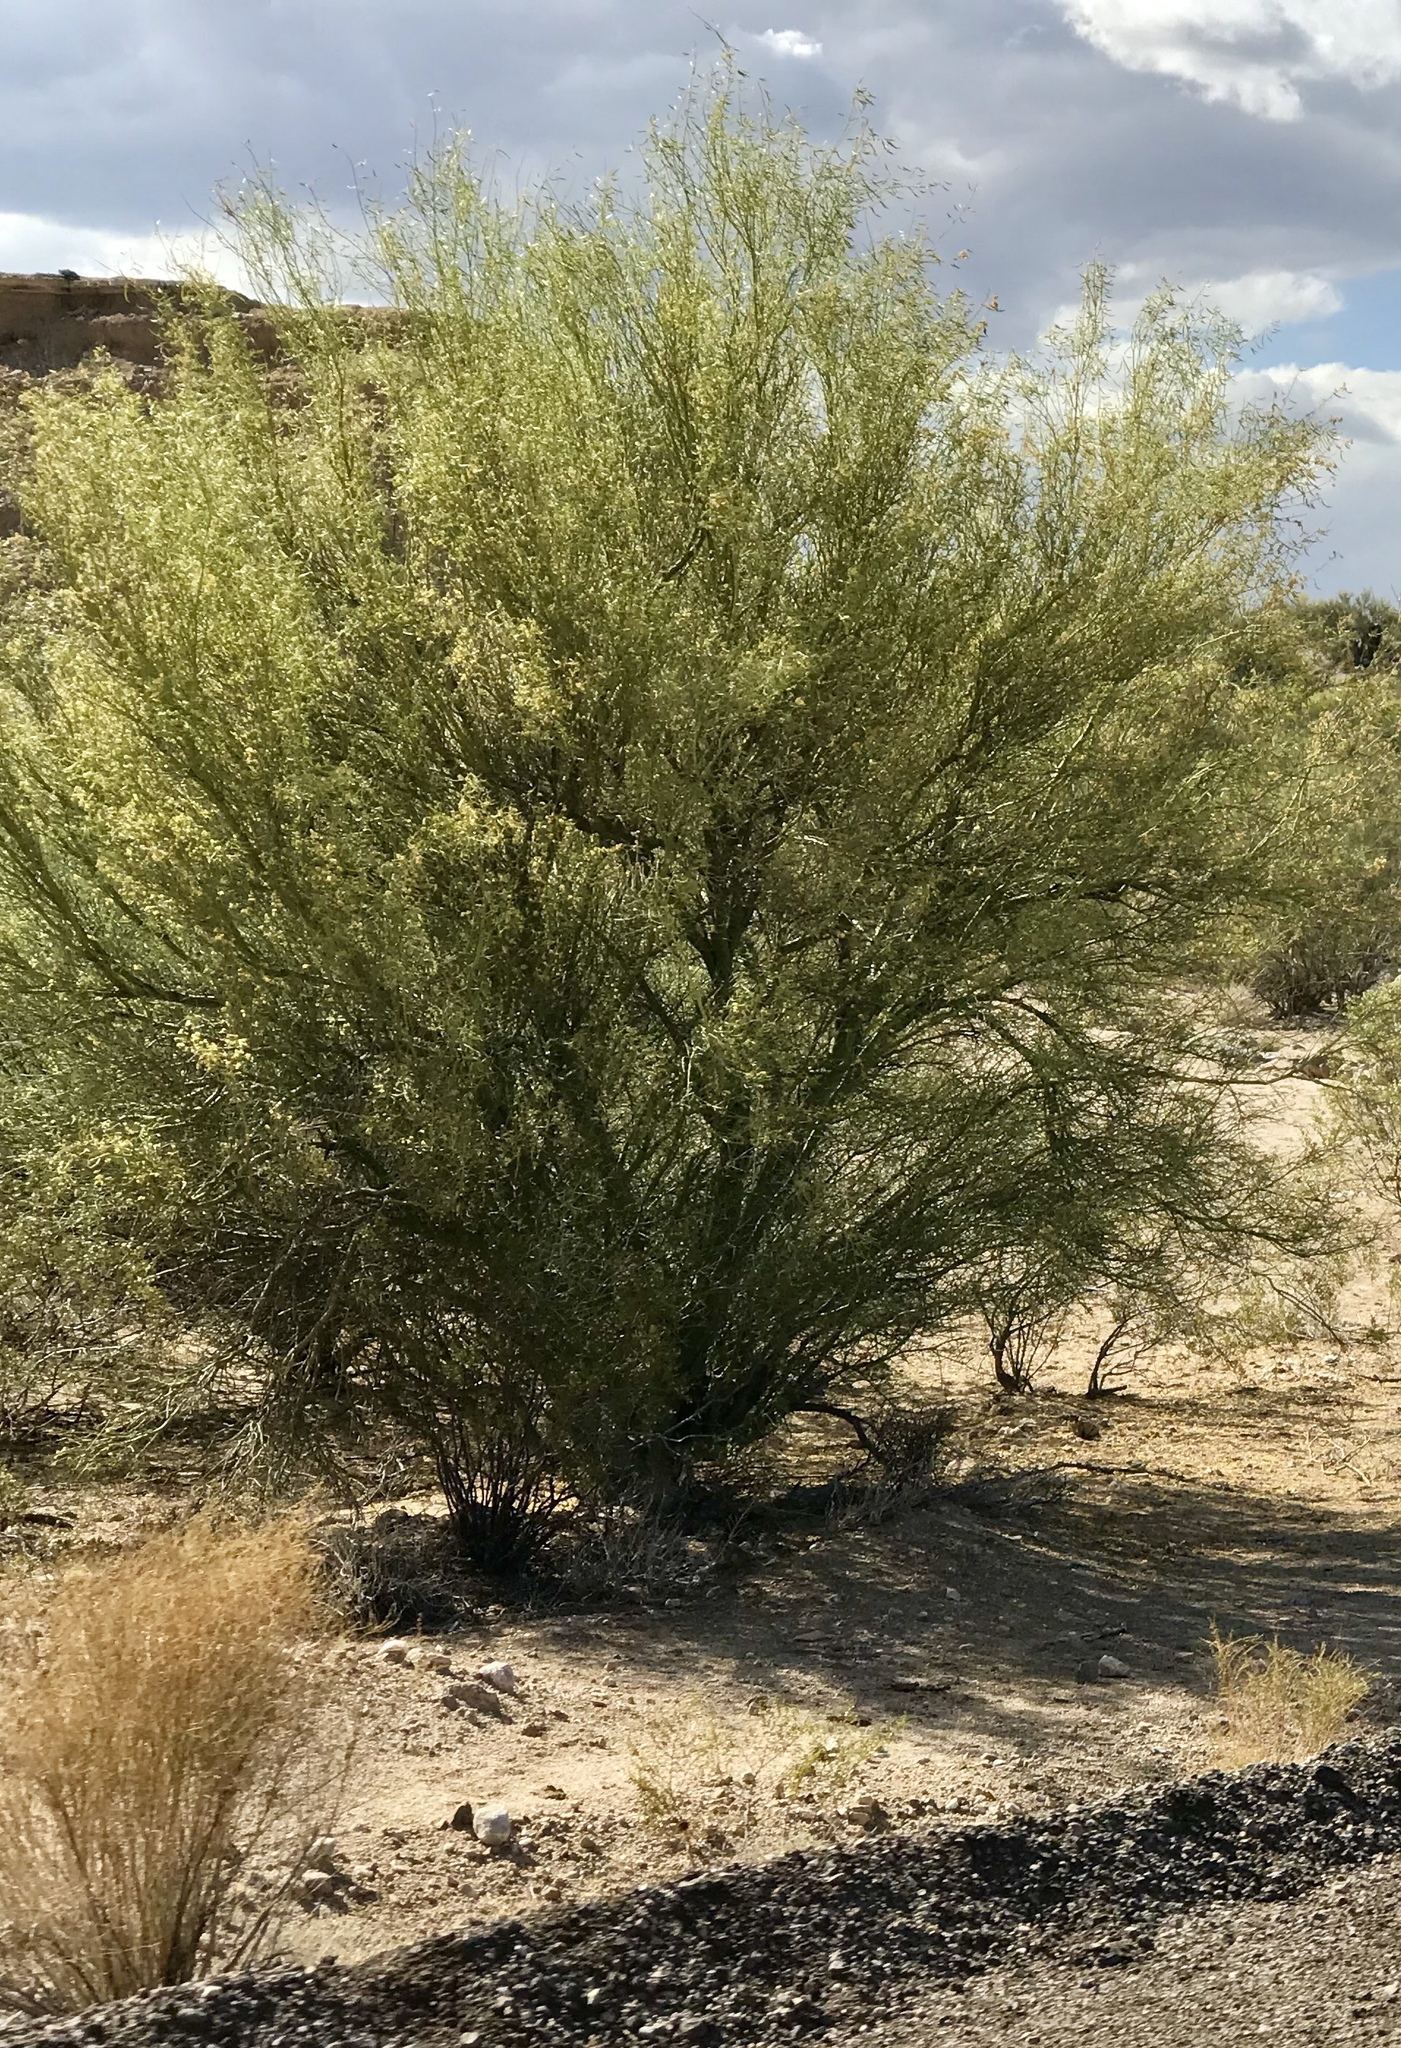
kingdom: Plantae
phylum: Tracheophyta
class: Magnoliopsida
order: Fabales
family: Fabaceae
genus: Parkinsonia
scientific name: Parkinsonia microphylla
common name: Yellow paloverde
